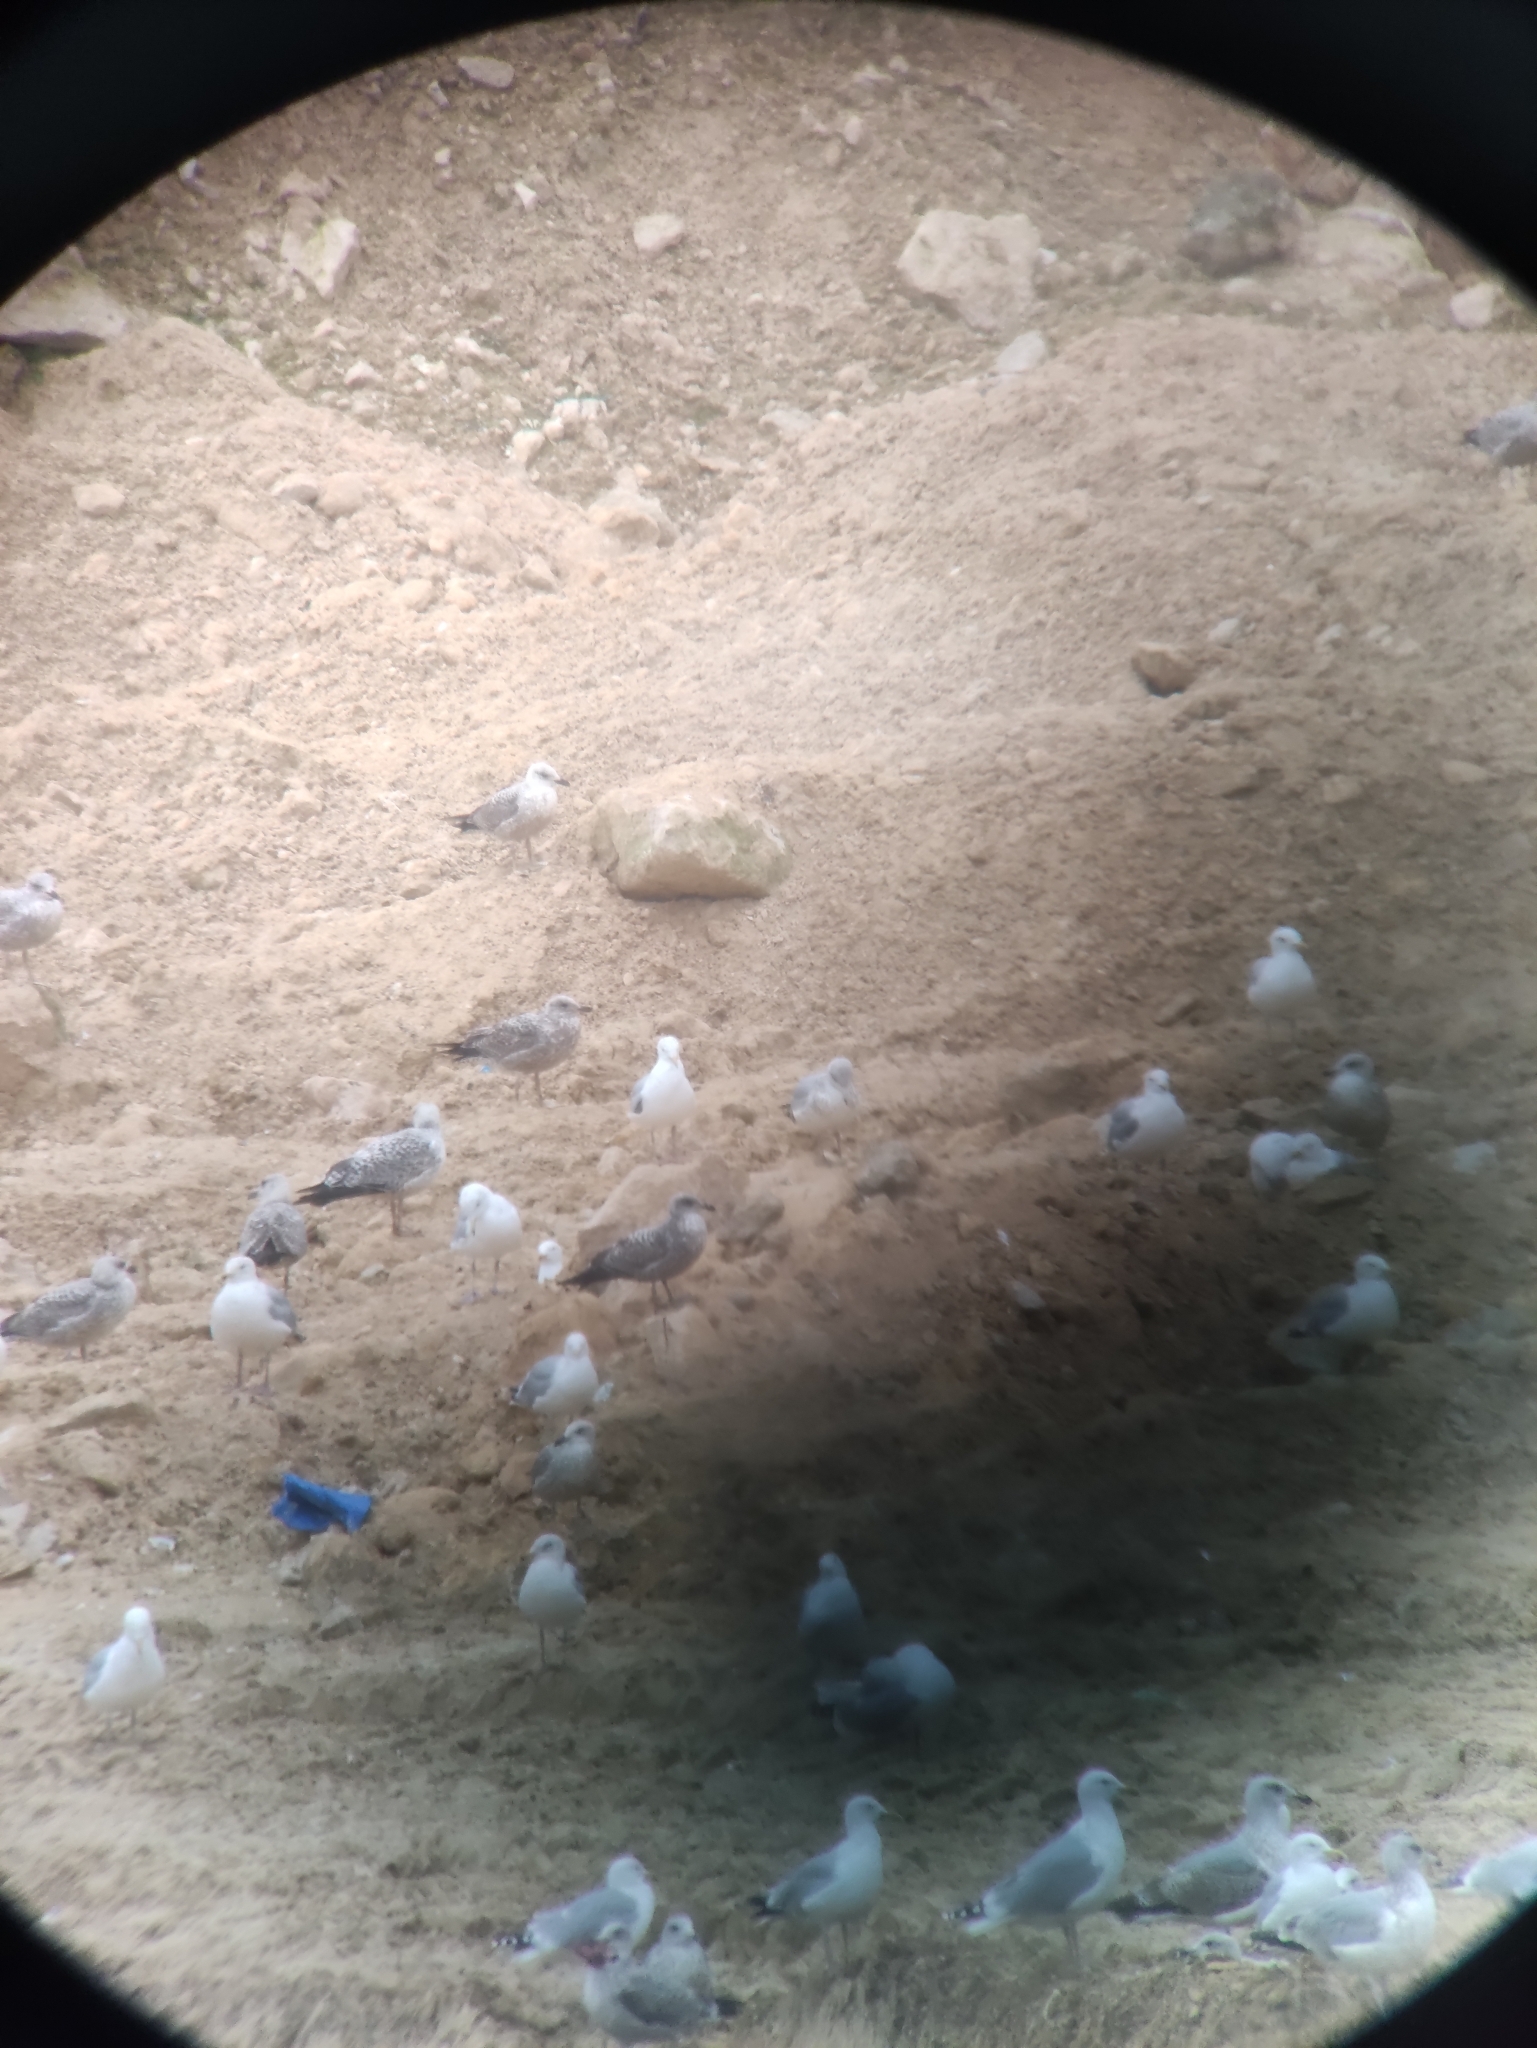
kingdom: Animalia
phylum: Chordata
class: Aves
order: Charadriiformes
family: Laridae
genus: Larus
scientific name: Larus argentatus
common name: Herring gull
